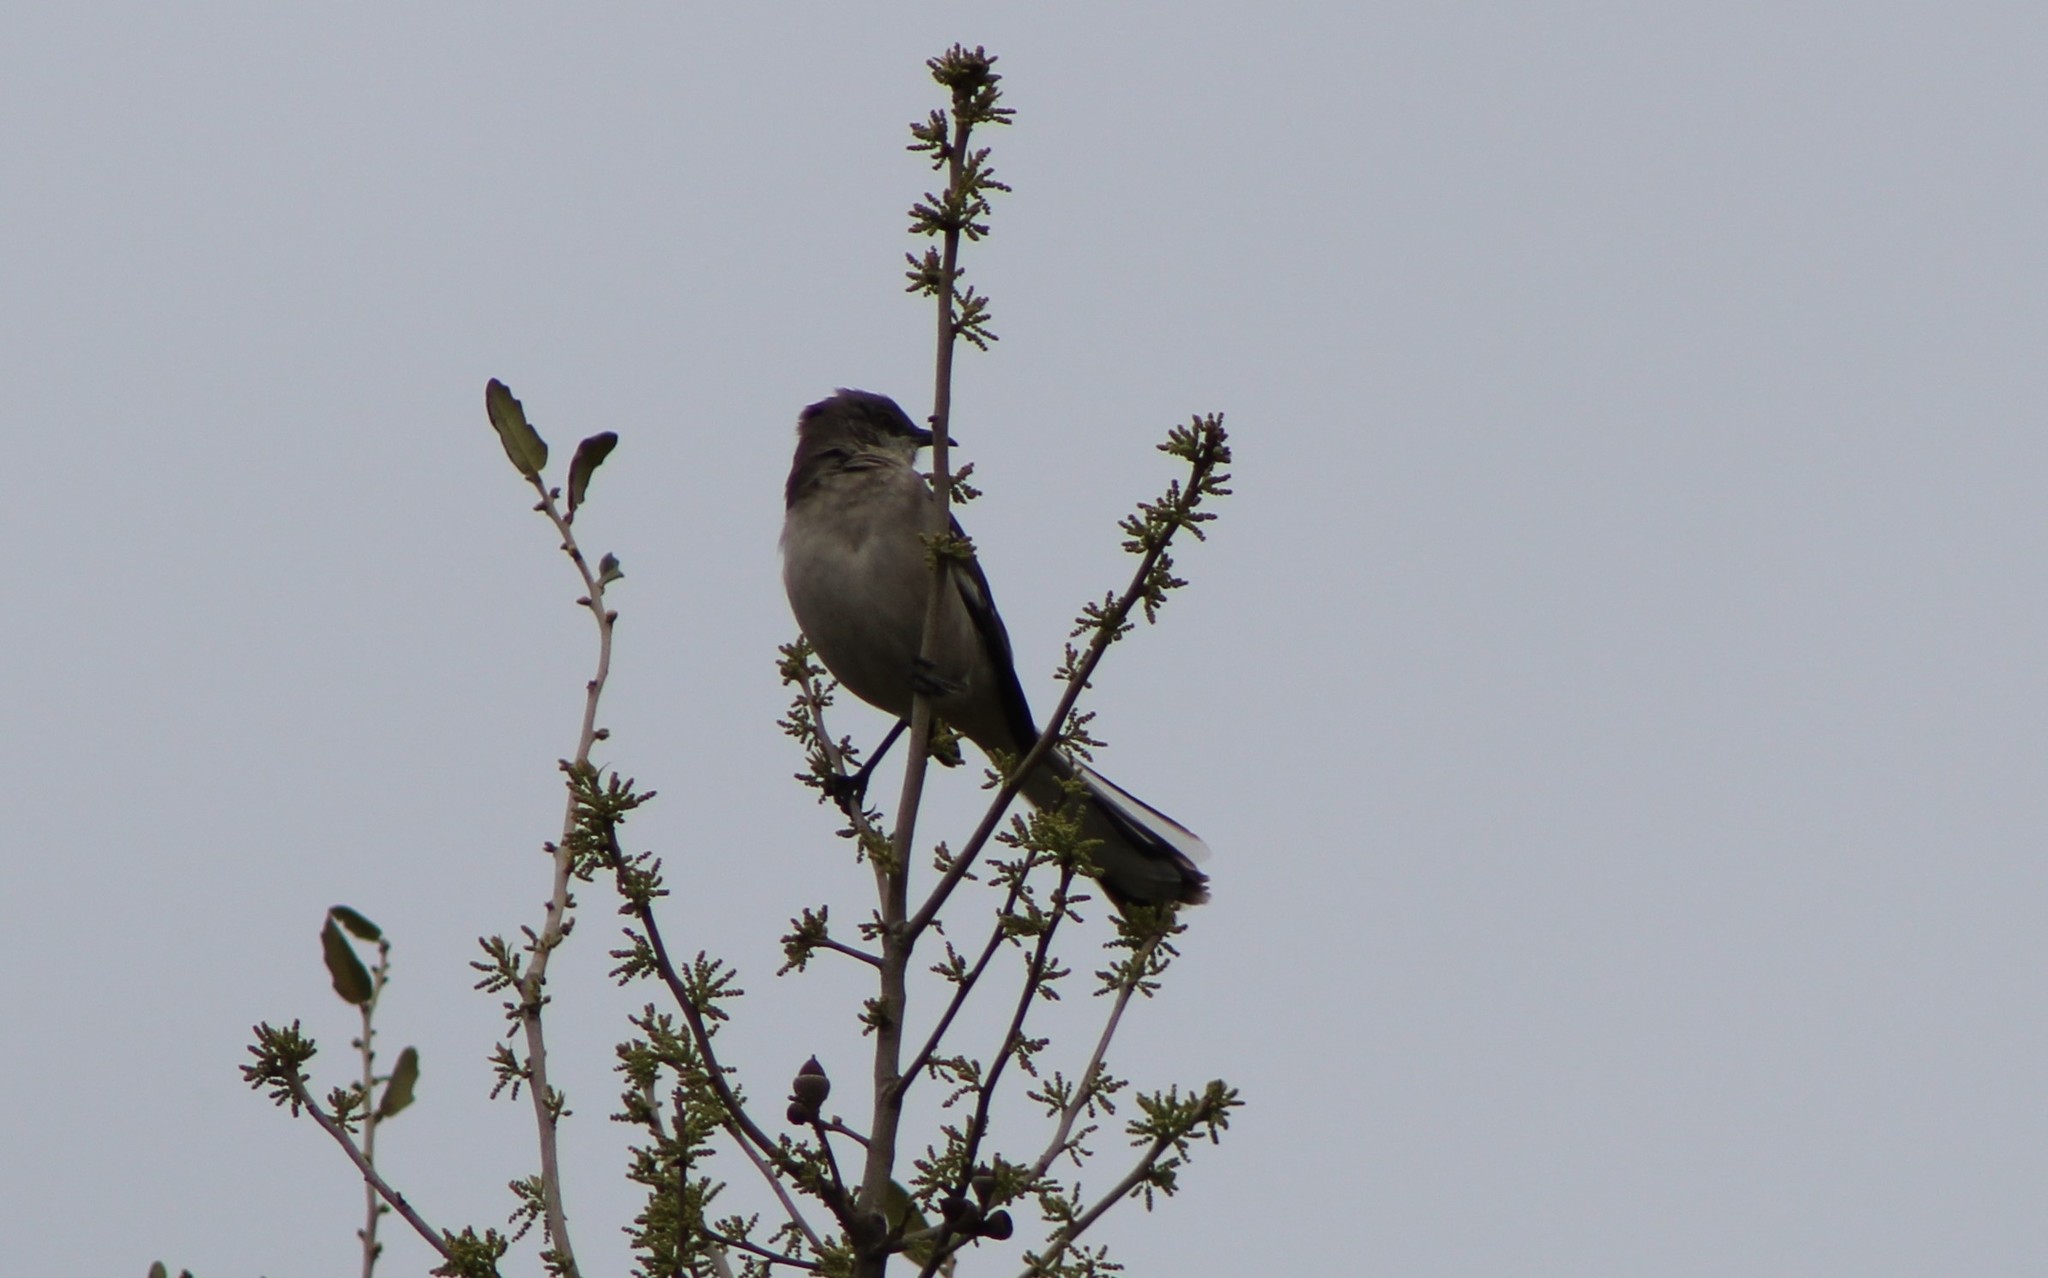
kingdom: Animalia
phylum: Chordata
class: Aves
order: Passeriformes
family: Mimidae
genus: Mimus
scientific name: Mimus polyglottos
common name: Northern mockingbird
